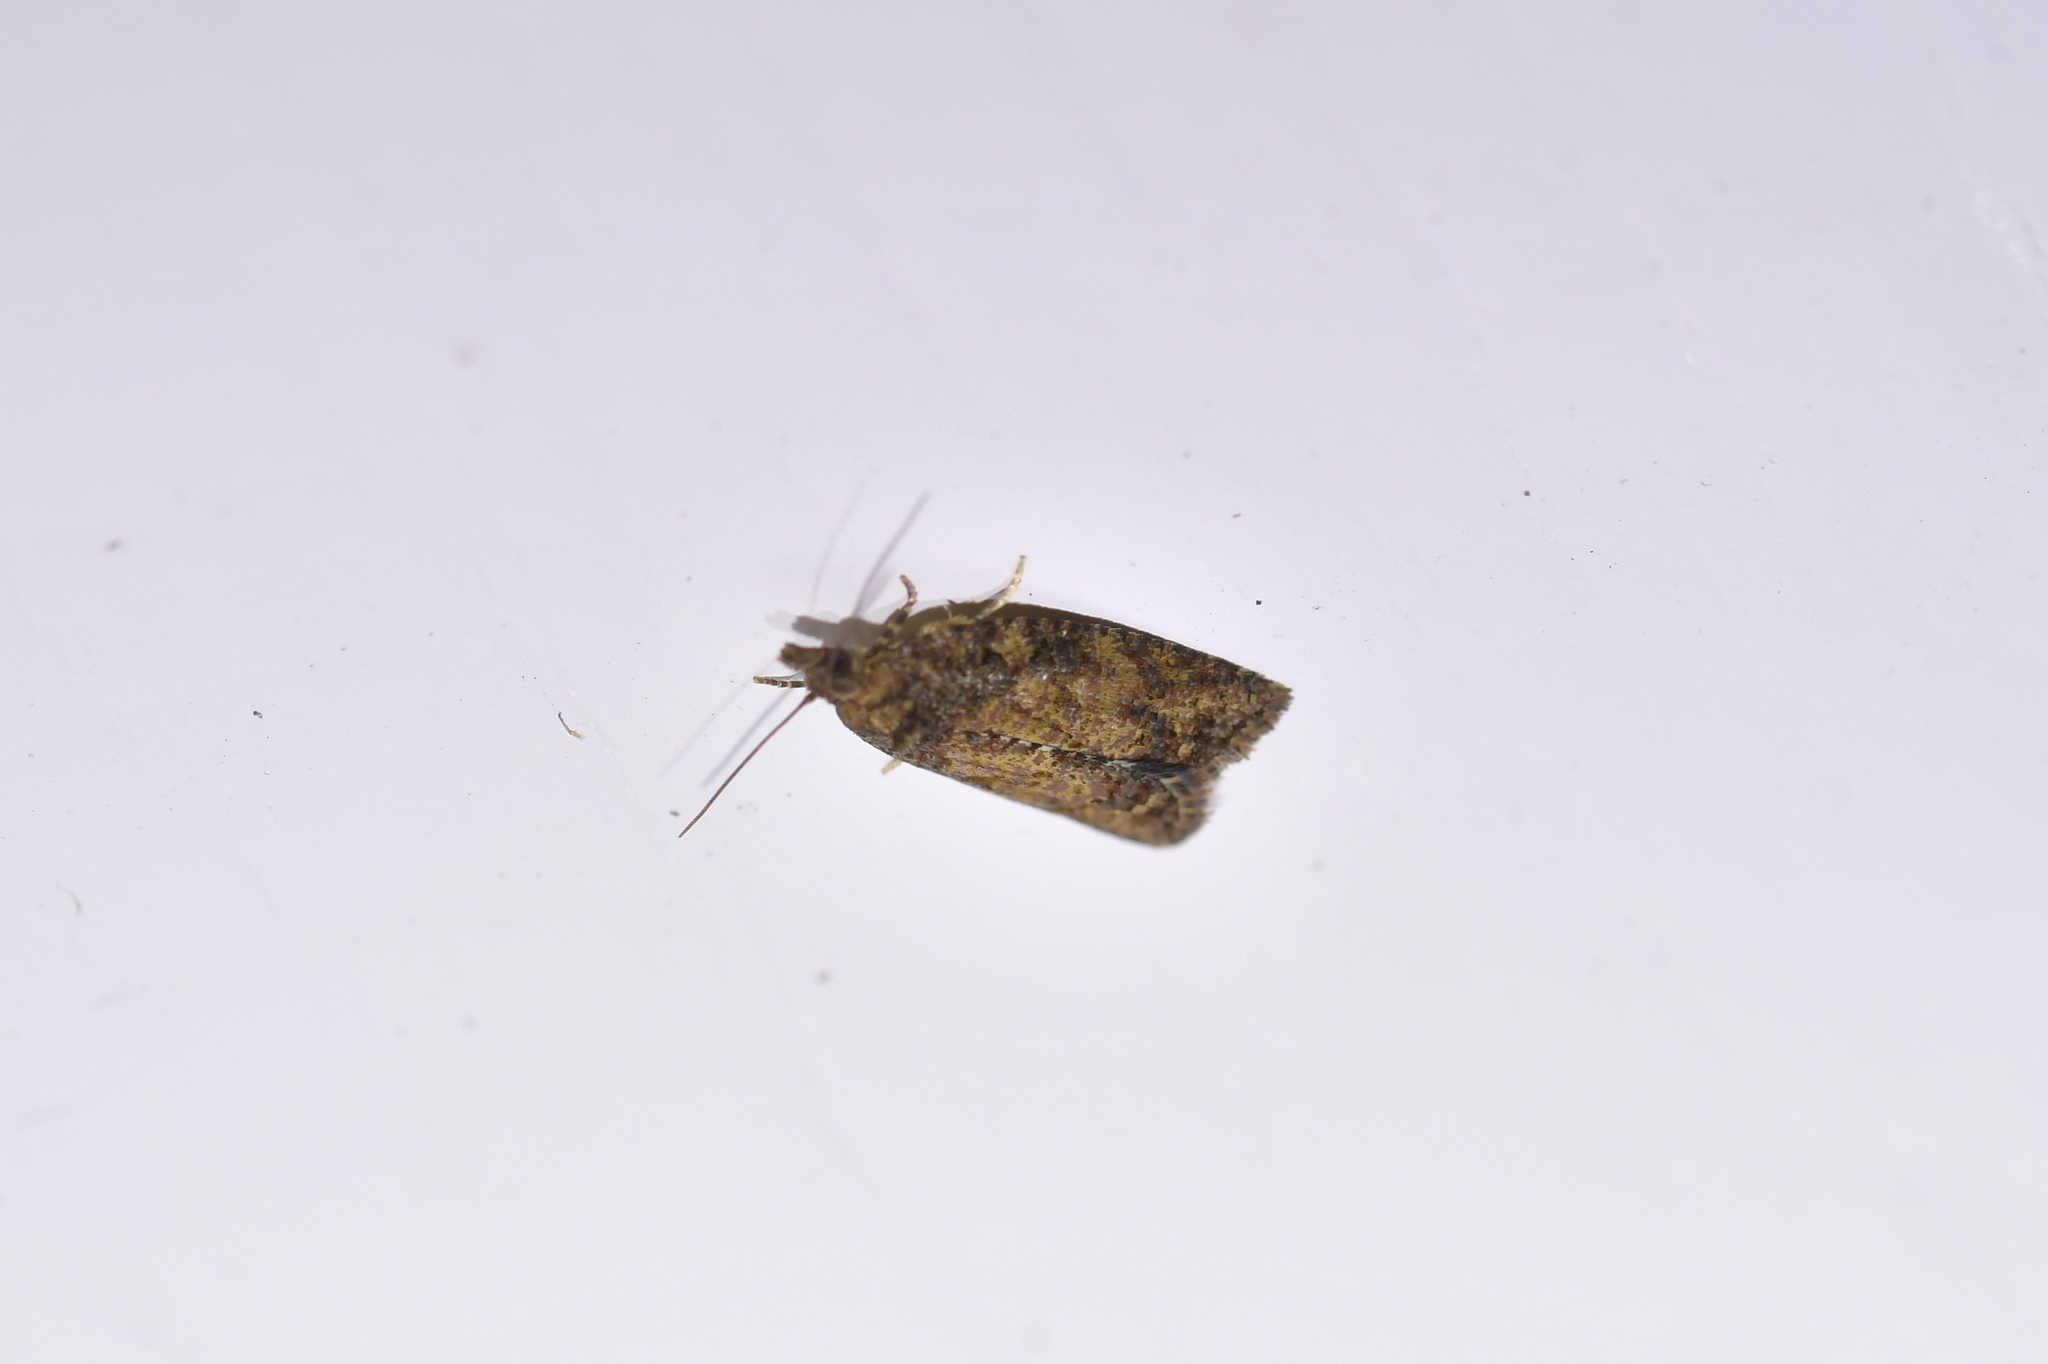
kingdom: Animalia
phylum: Arthropoda
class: Insecta
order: Lepidoptera
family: Tortricidae
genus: Capua
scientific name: Capua intractana
